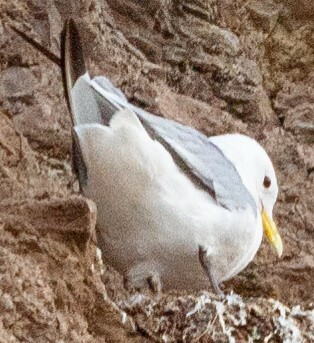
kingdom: Animalia
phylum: Chordata
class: Aves
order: Charadriiformes
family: Laridae
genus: Rissa
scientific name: Rissa tridactyla
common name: Black-legged kittiwake
